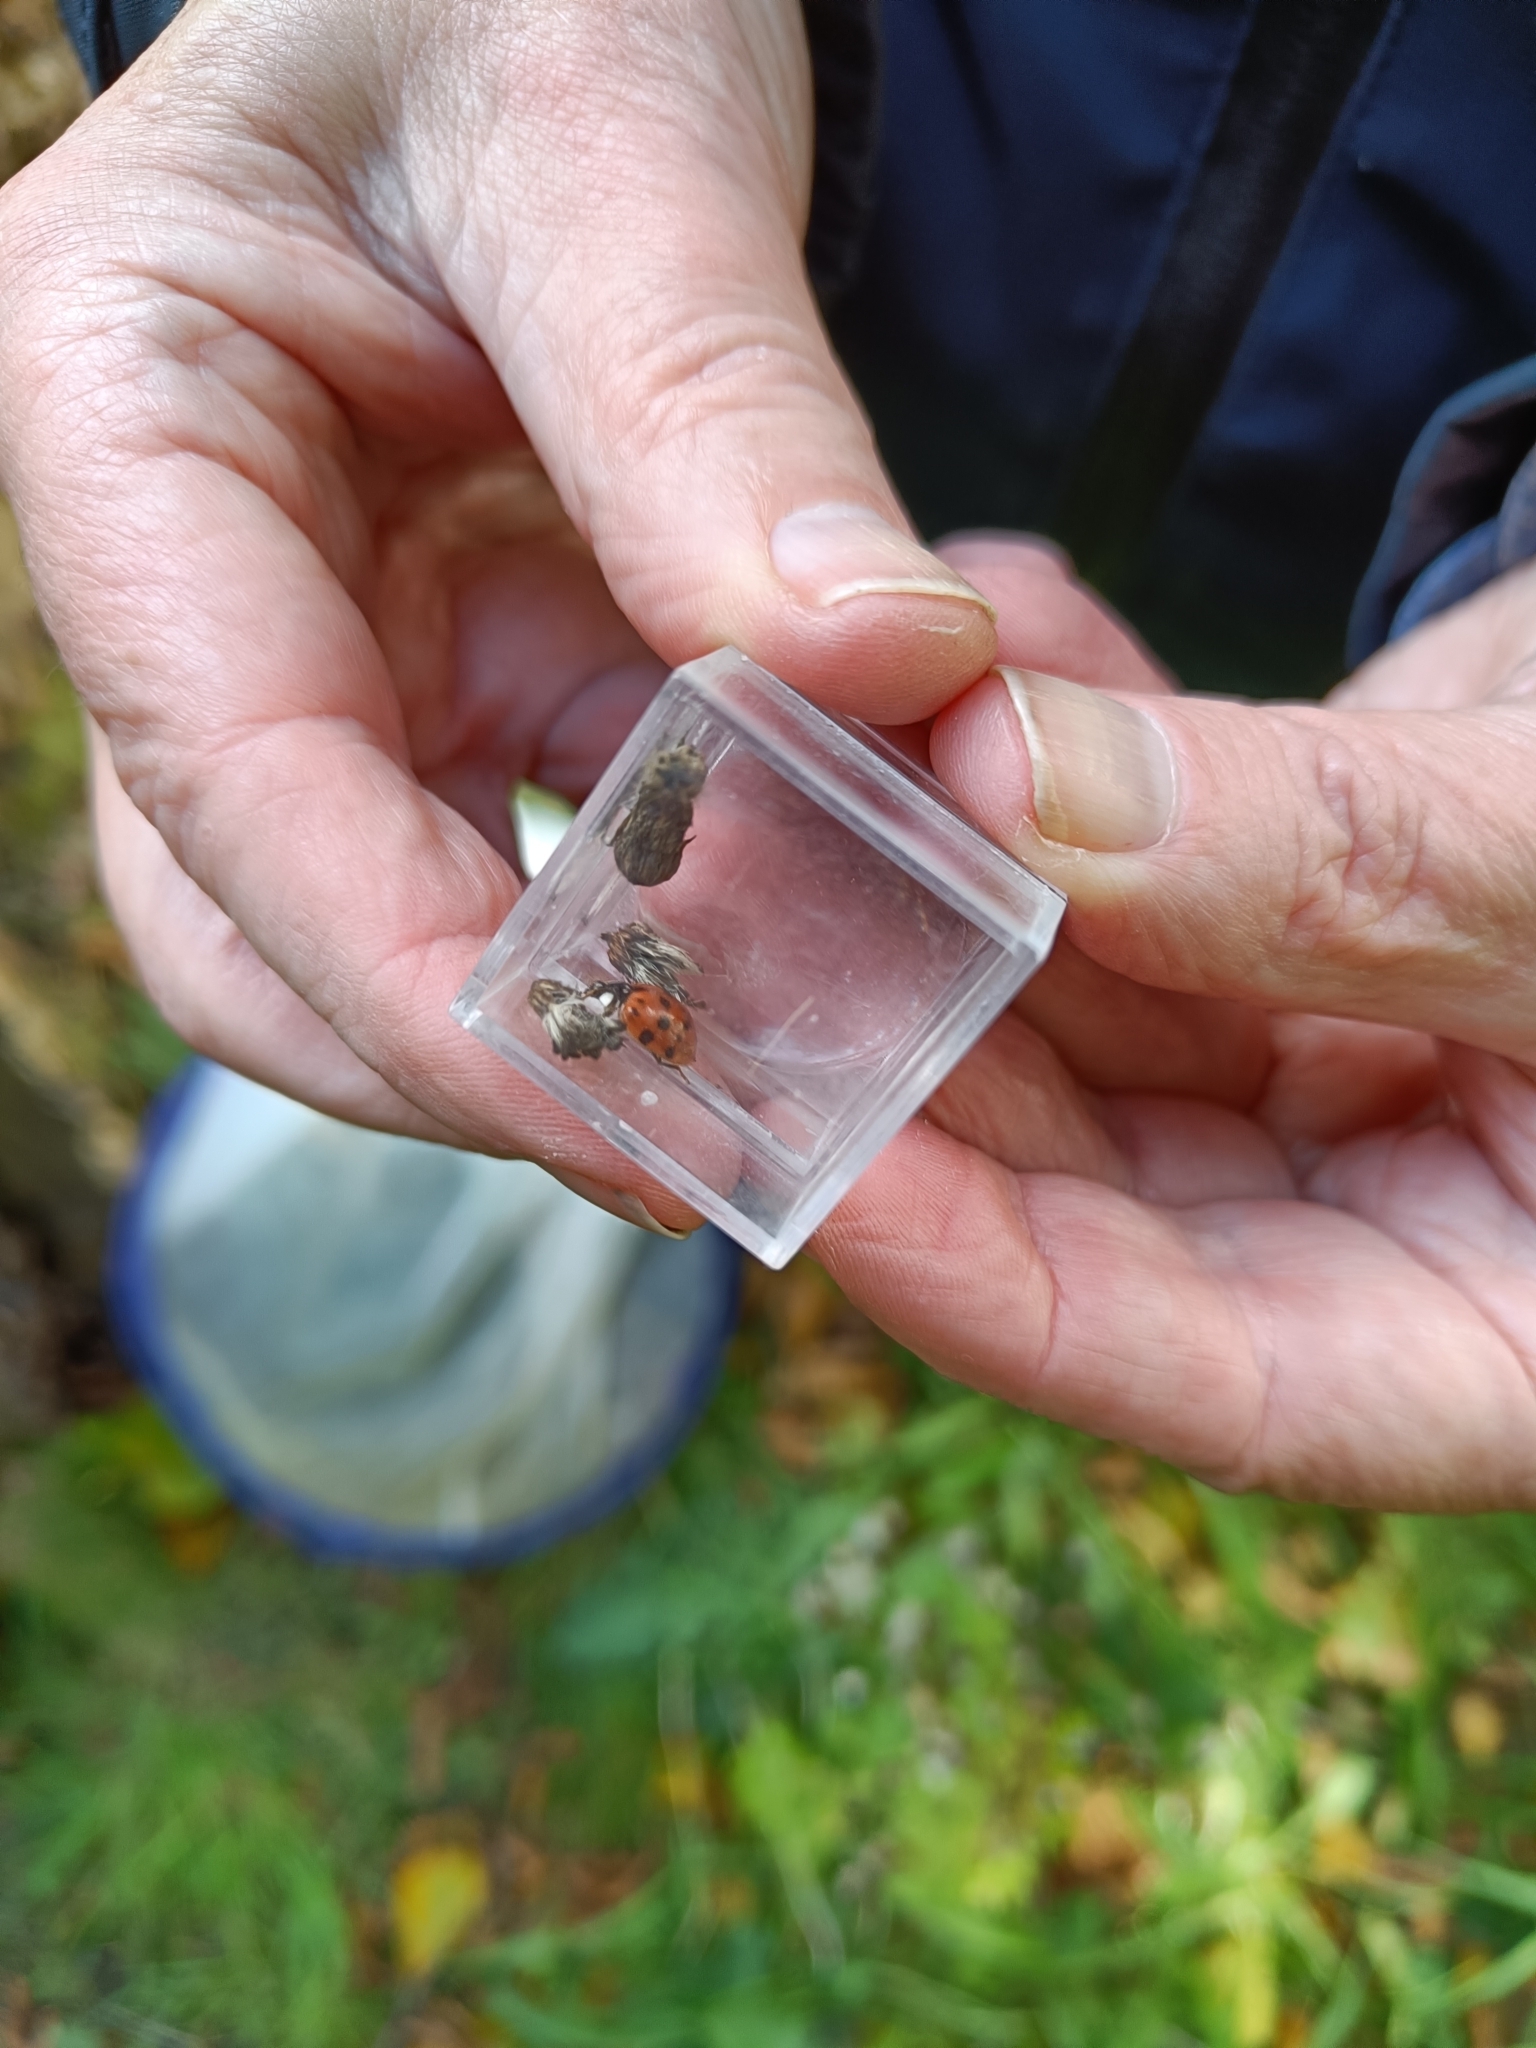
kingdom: Animalia
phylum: Arthropoda
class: Insecta
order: Coleoptera
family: Coccinellidae
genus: Harmonia
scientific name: Harmonia axyridis
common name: Harlequin ladybird
